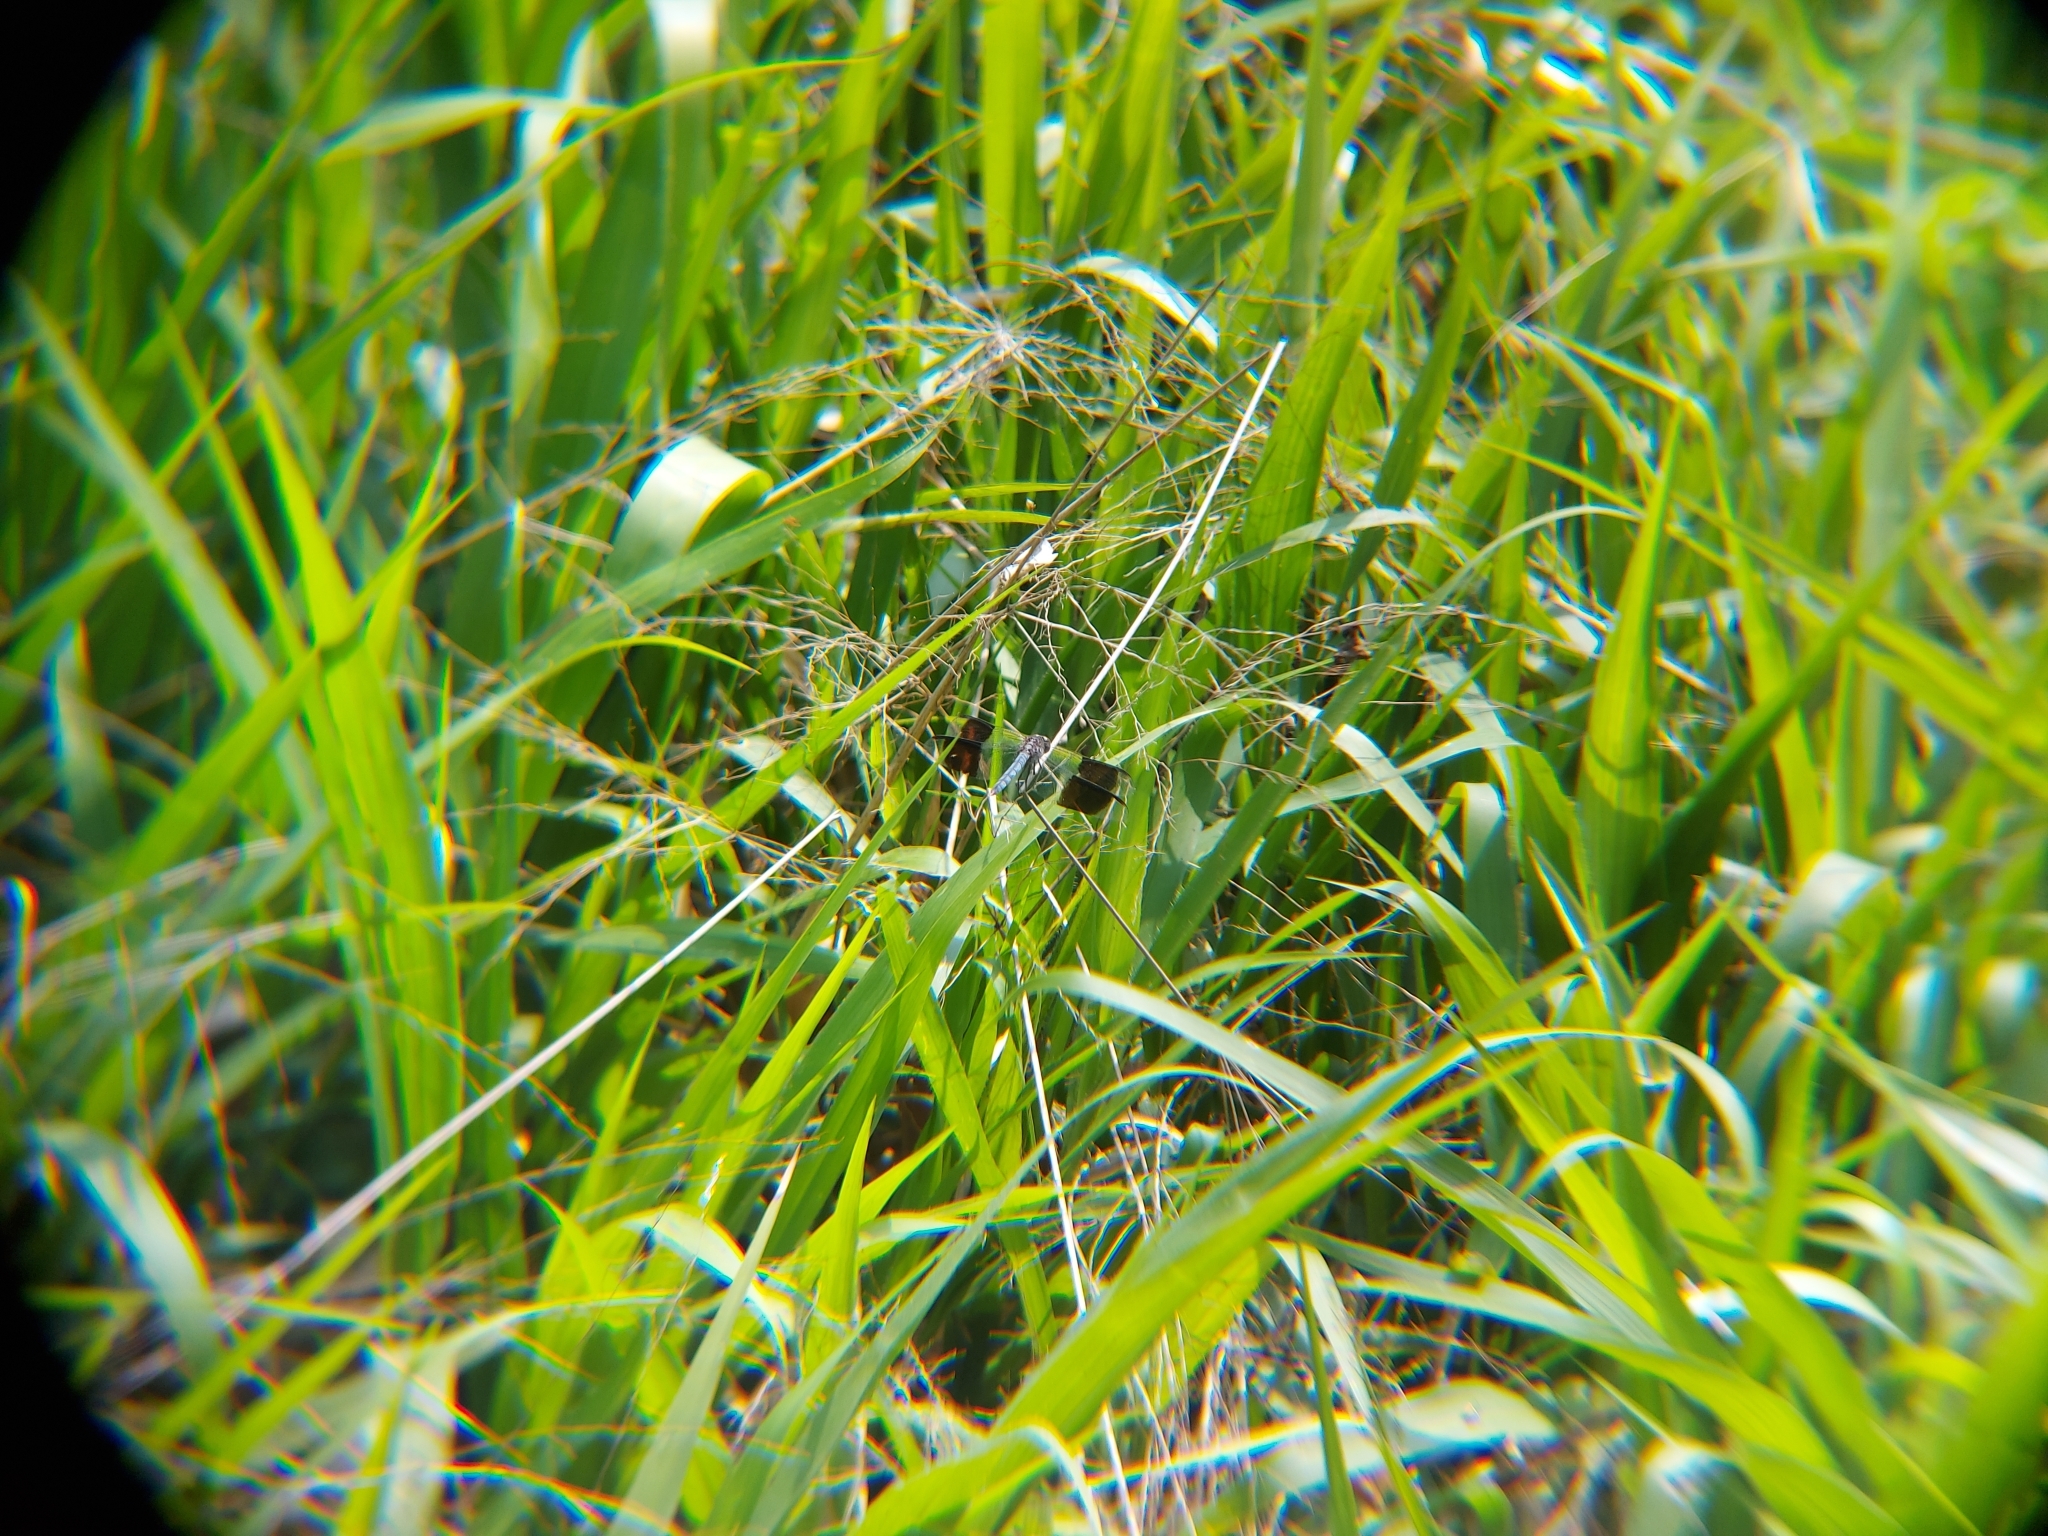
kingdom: Animalia
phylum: Arthropoda
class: Insecta
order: Odonata
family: Libellulidae
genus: Erythrodiplax
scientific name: Erythrodiplax umbrata
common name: Band-winged dragonlet
